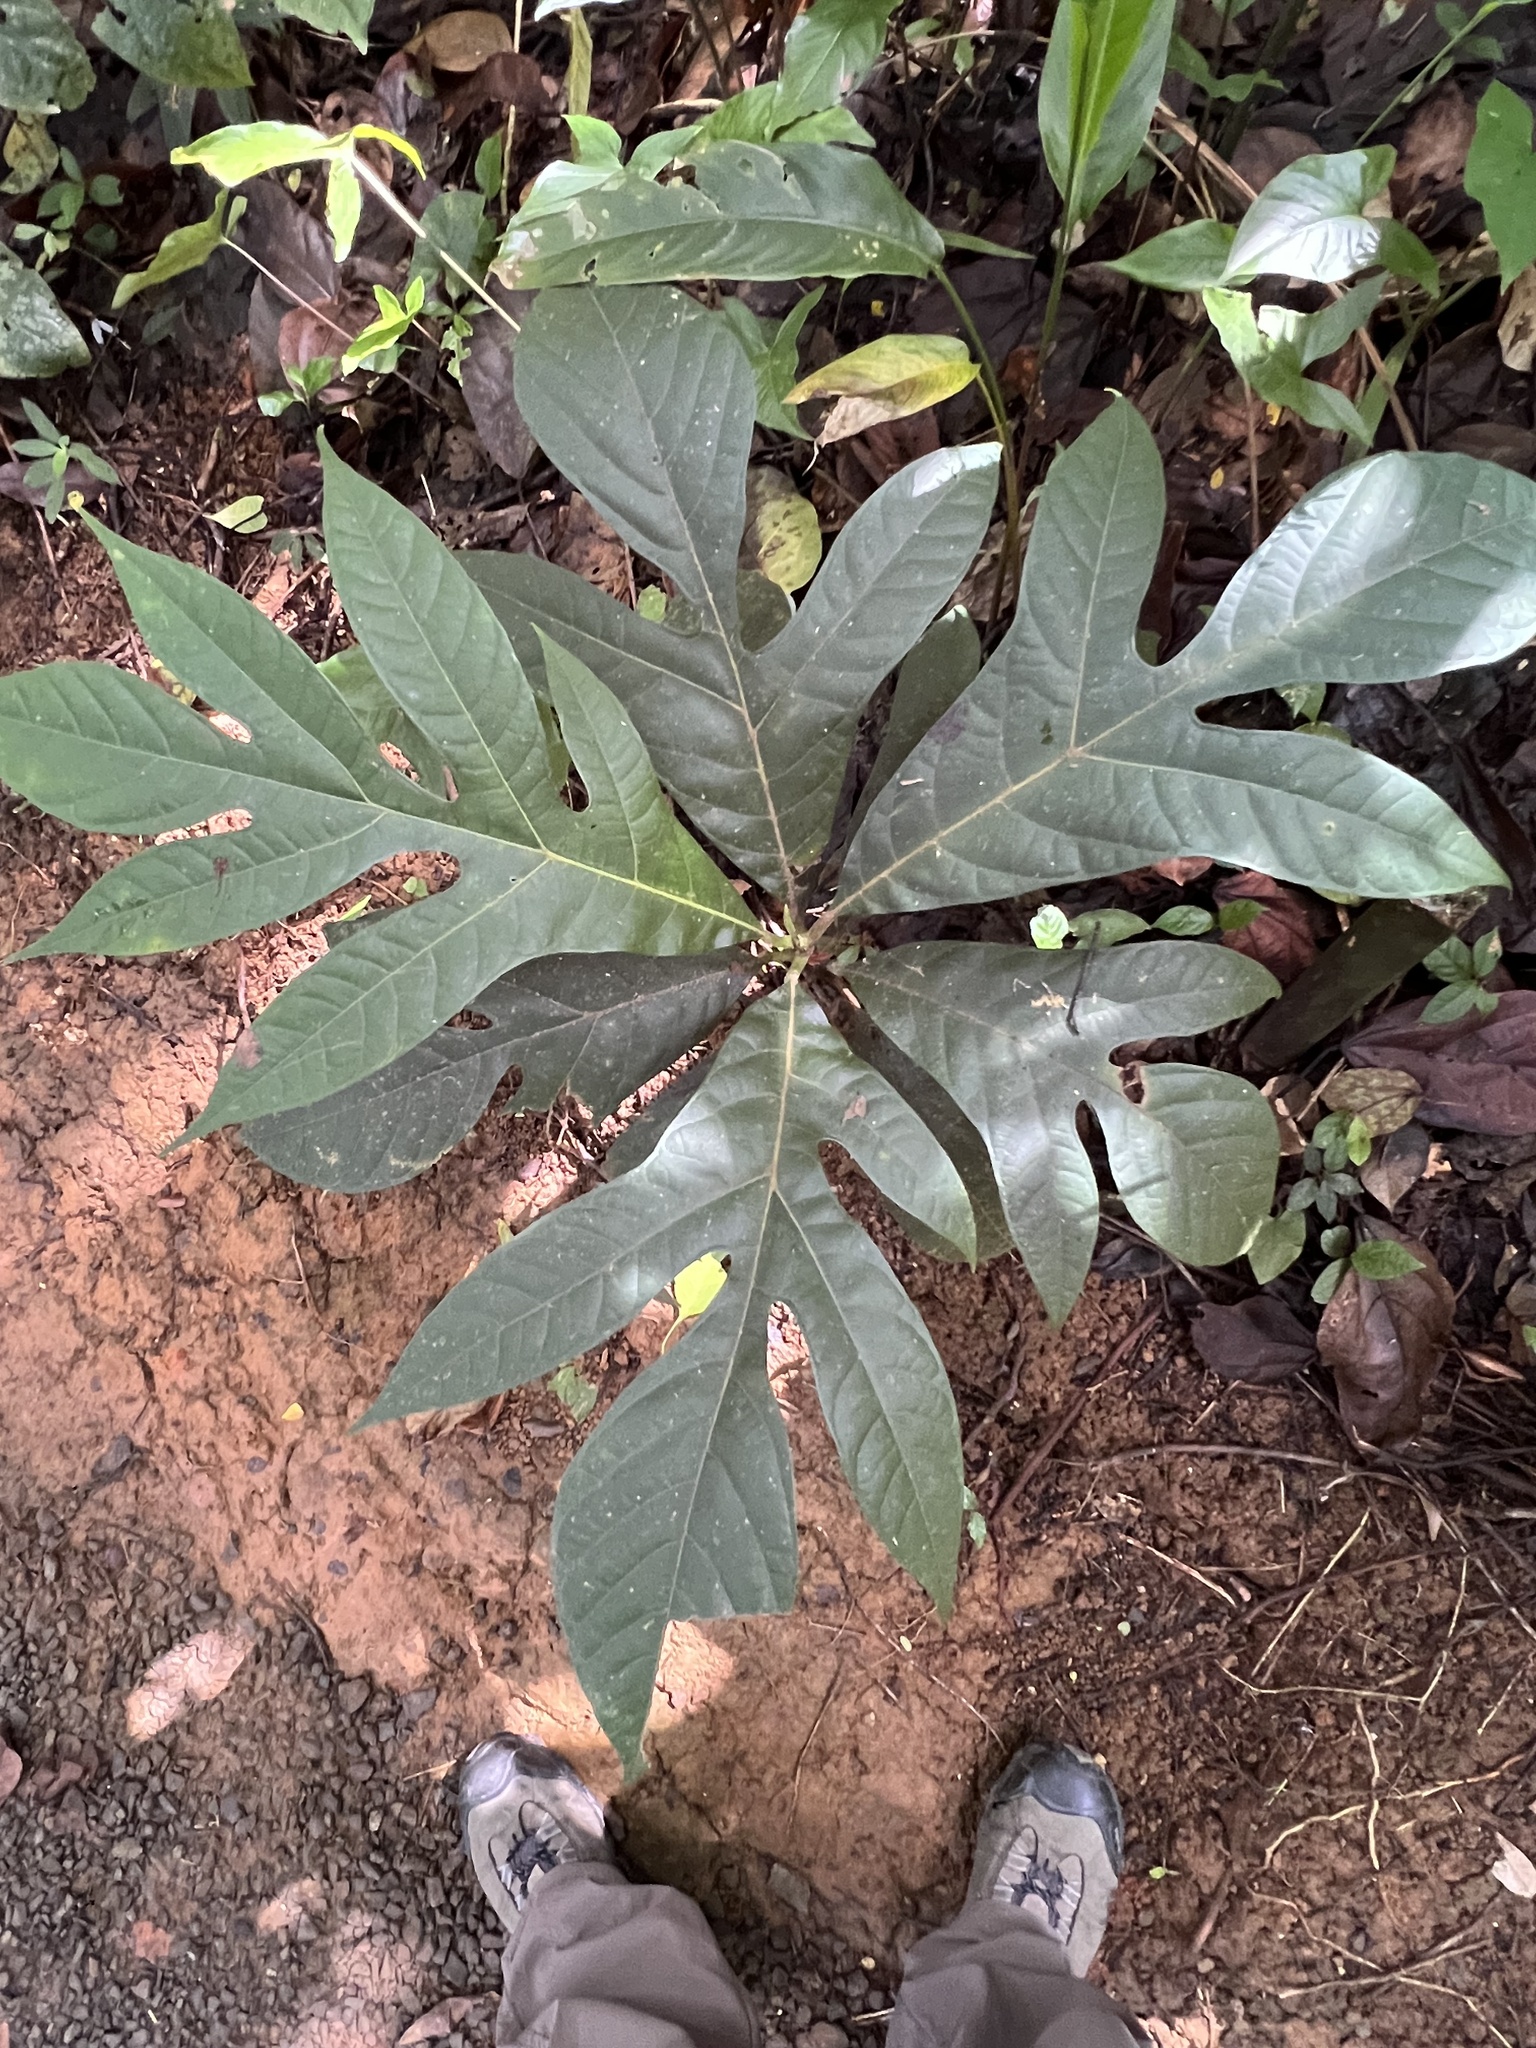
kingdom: Plantae
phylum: Tracheophyta
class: Magnoliopsida
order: Rosales
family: Moraceae
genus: Artocarpus
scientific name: Artocarpus altilis
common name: Breadfruit
